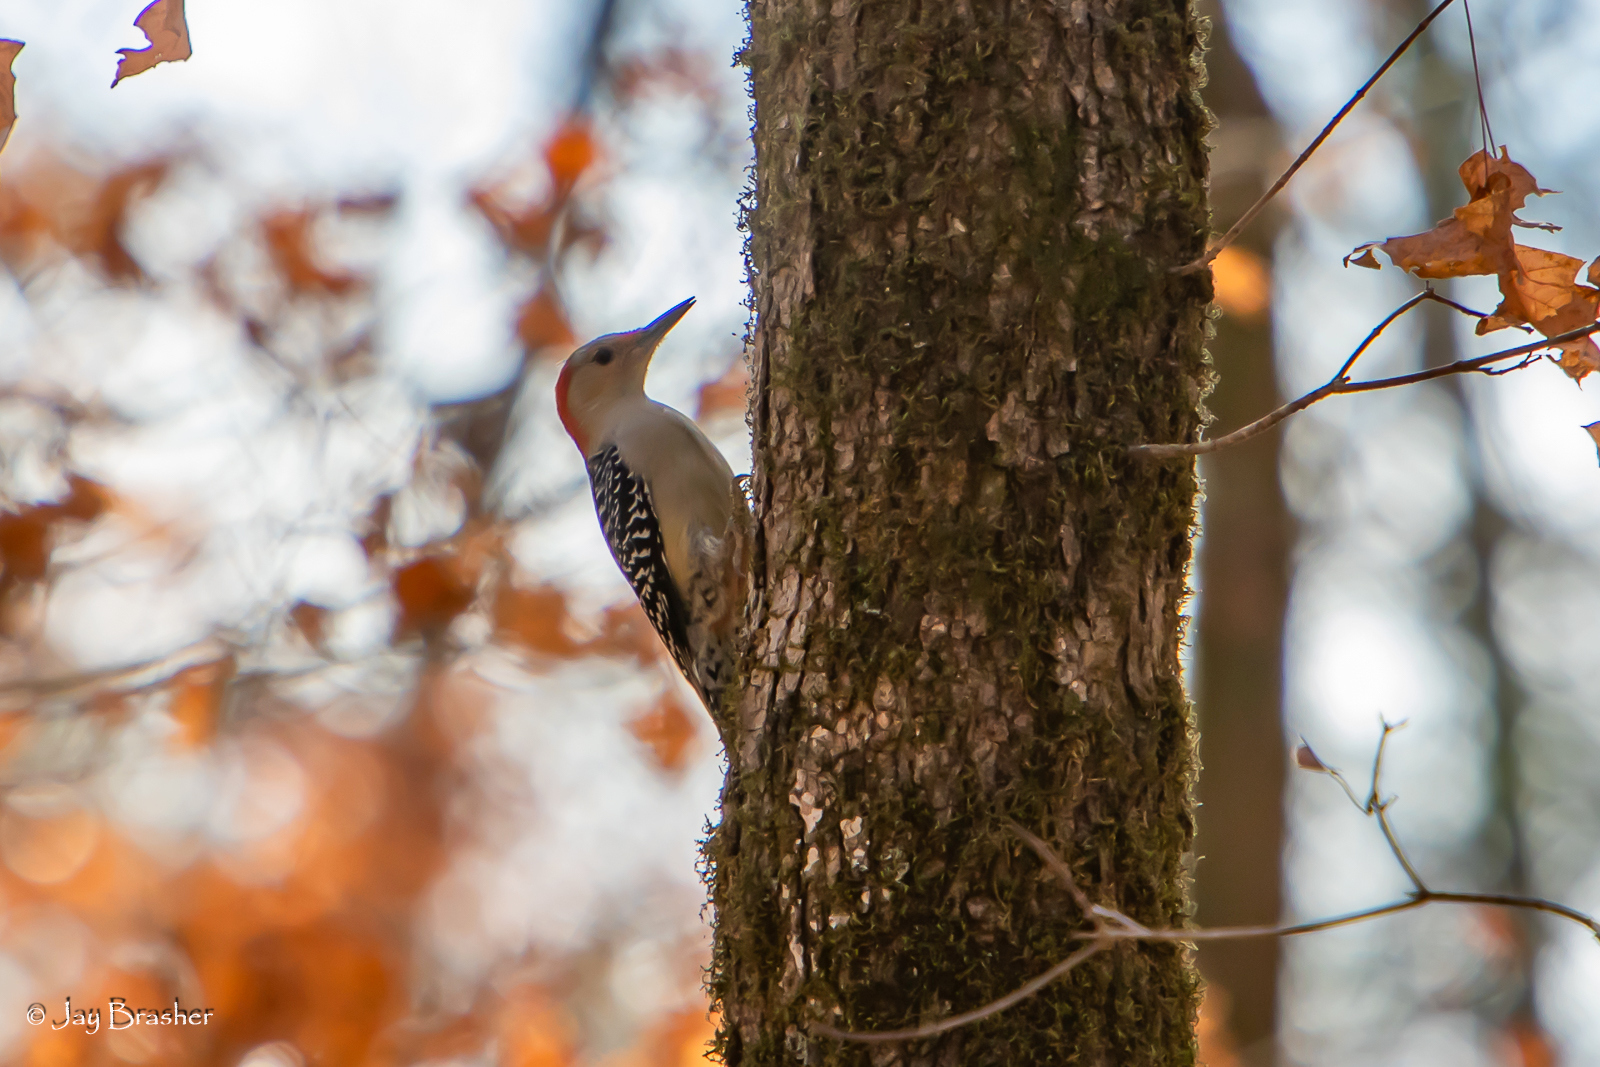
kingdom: Animalia
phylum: Chordata
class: Aves
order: Piciformes
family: Picidae
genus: Melanerpes
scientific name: Melanerpes carolinus
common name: Red-bellied woodpecker
